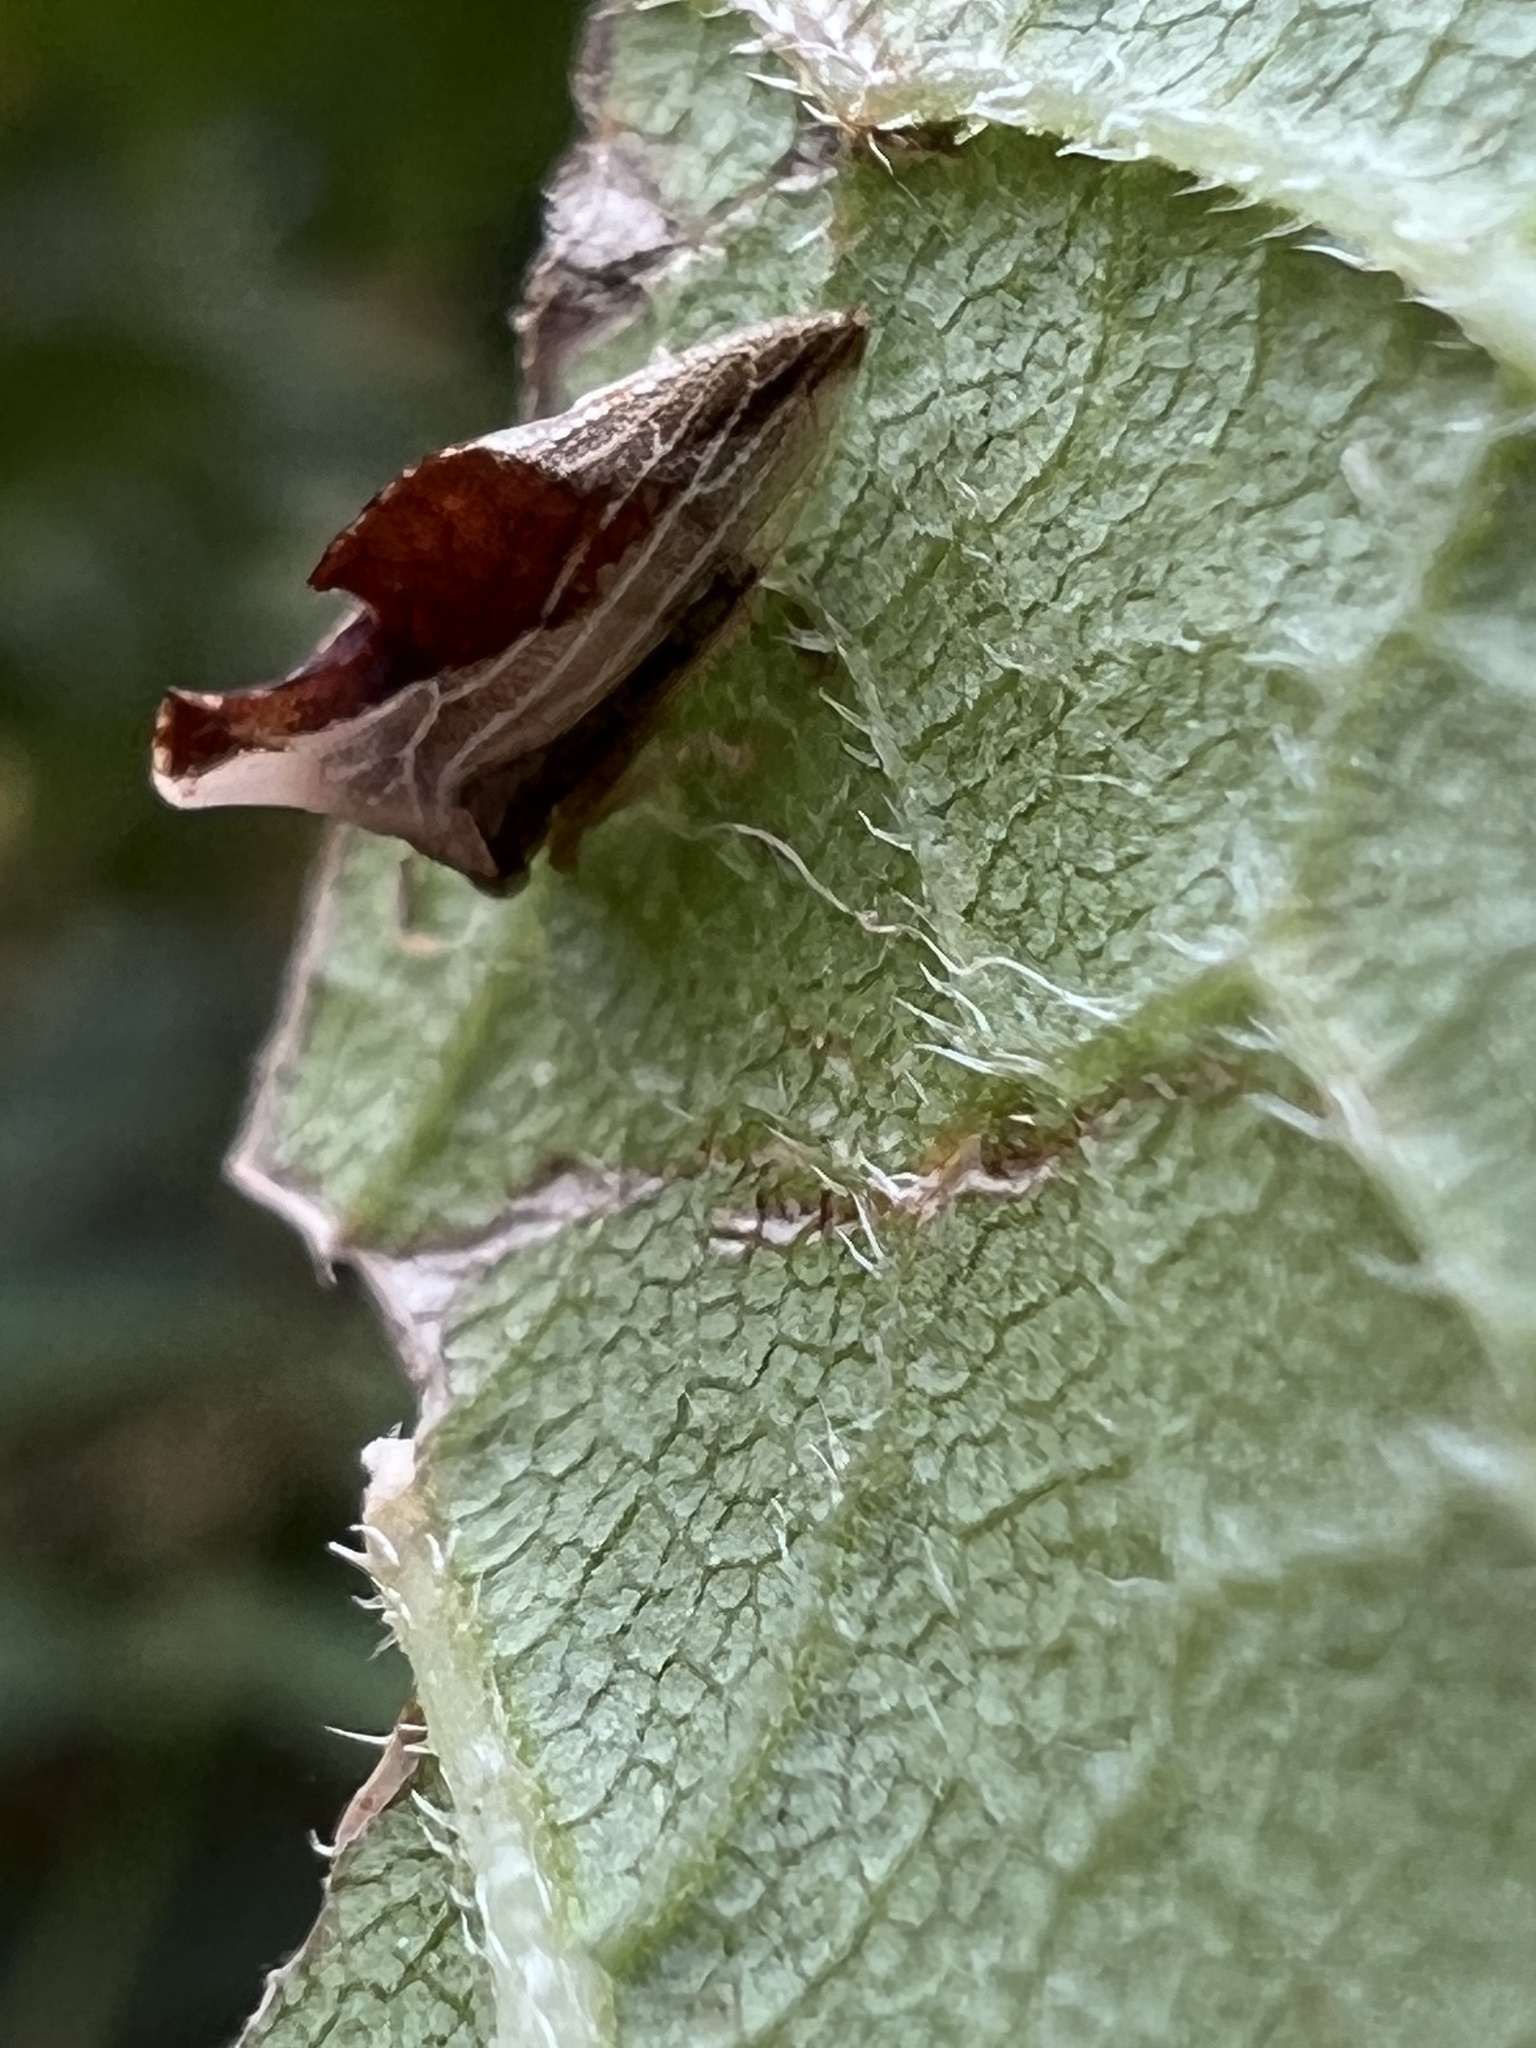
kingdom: Animalia
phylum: Arthropoda
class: Insecta
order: Hemiptera
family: Membracidae
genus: Entylia
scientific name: Entylia carinata
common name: Keeled treehopper
